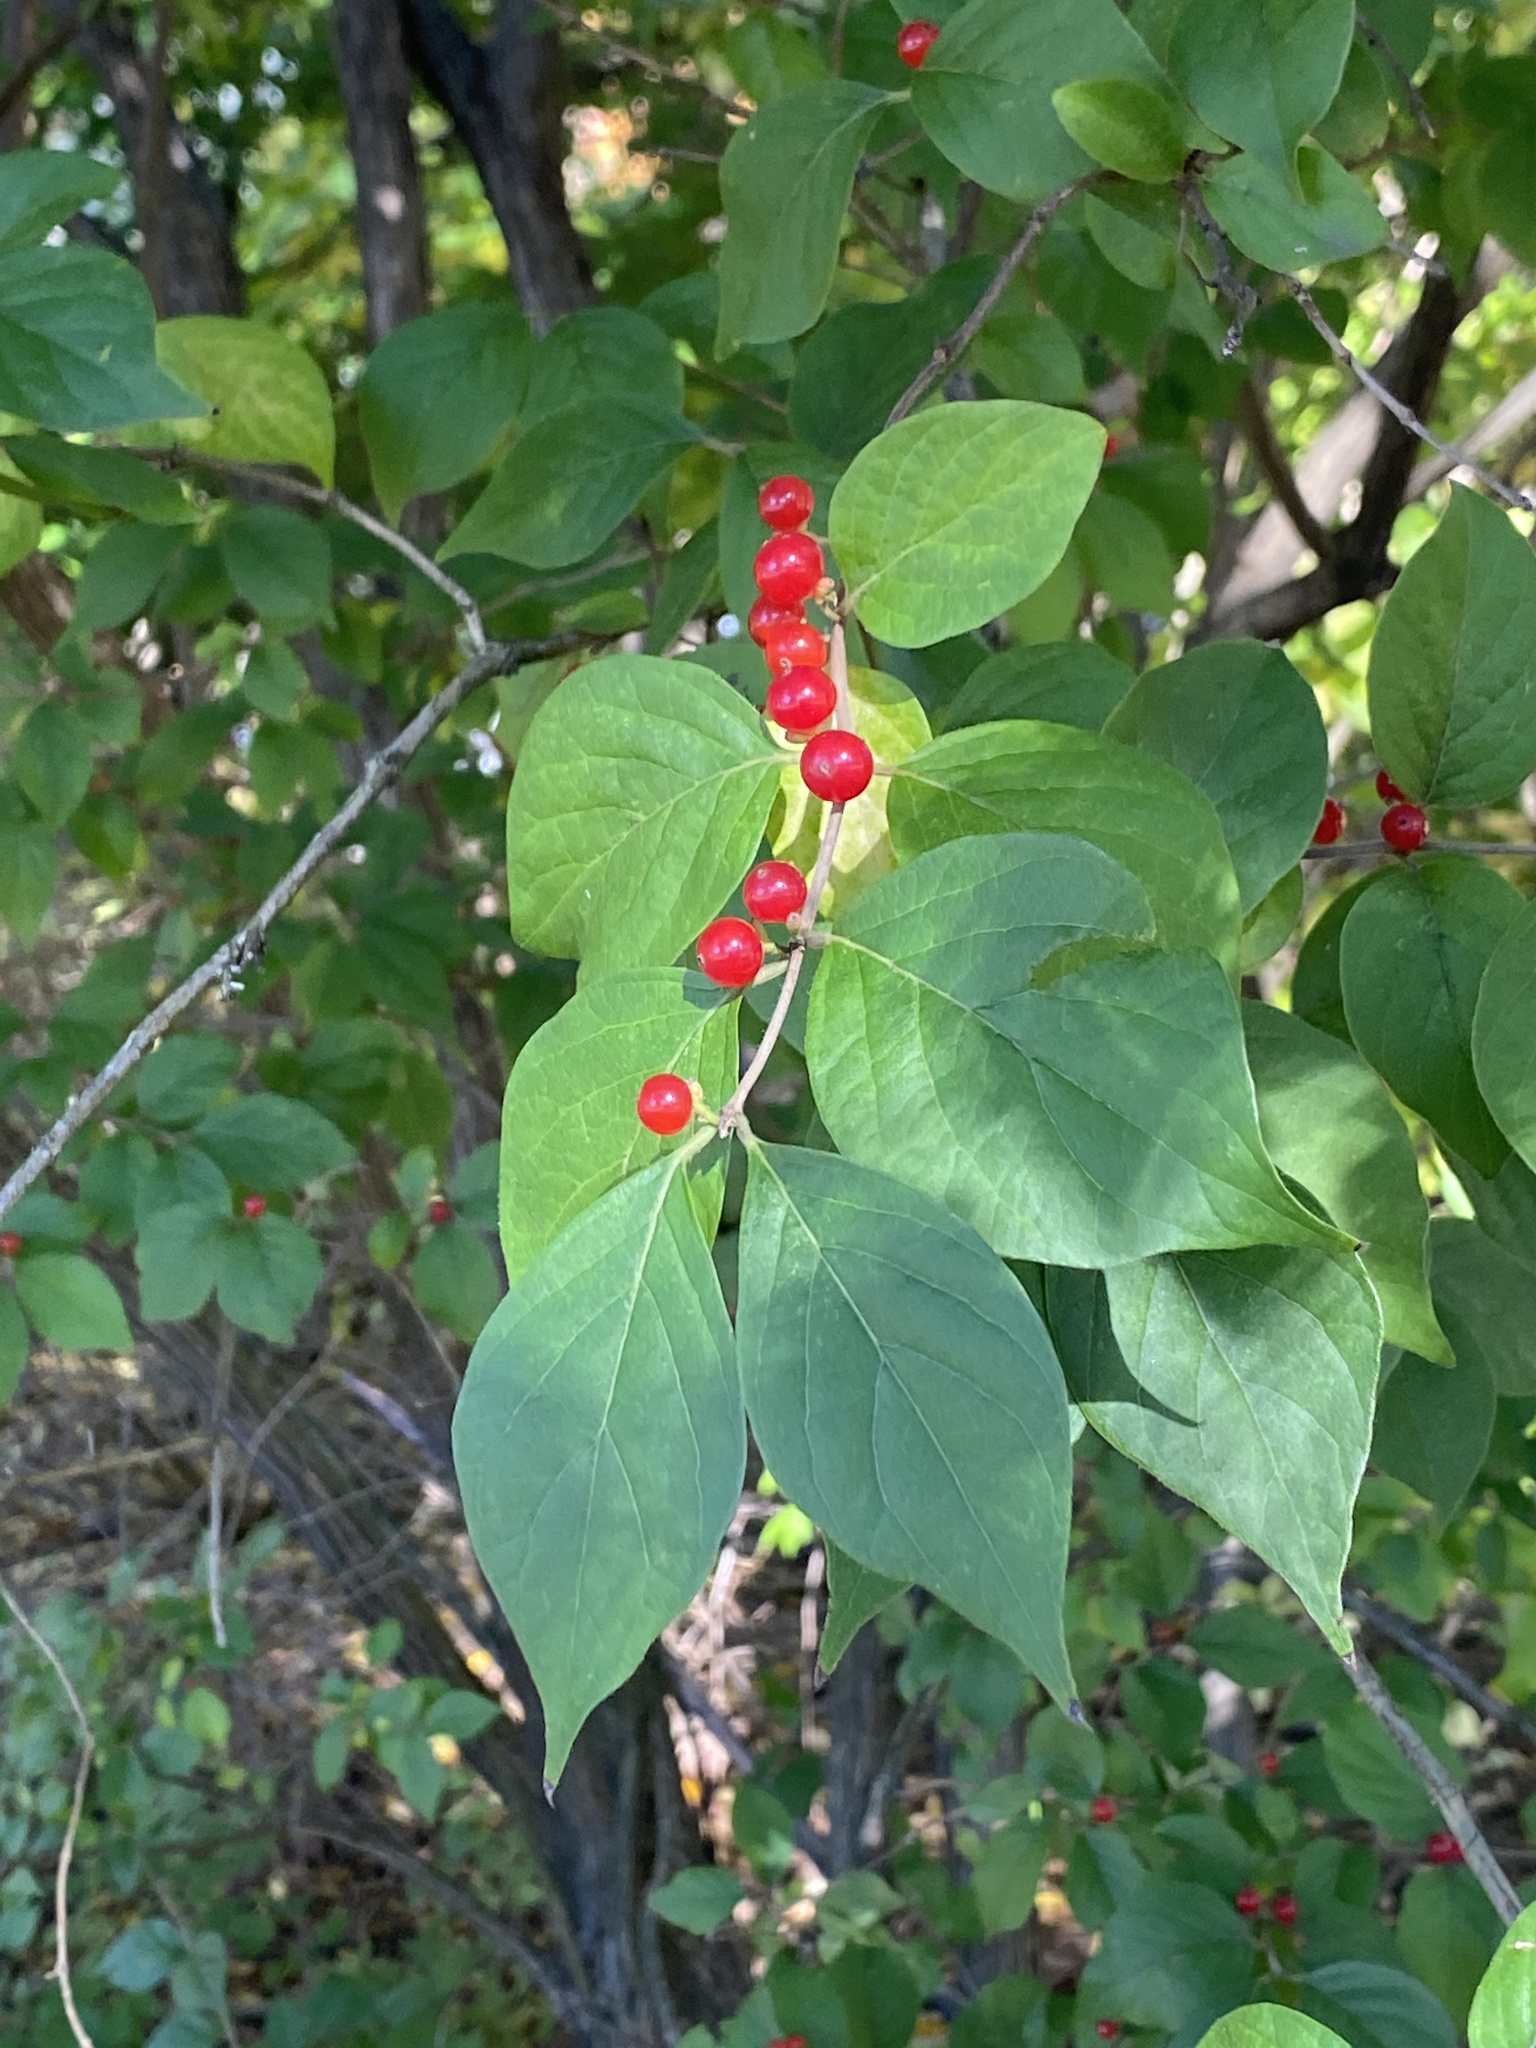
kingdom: Plantae
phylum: Tracheophyta
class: Magnoliopsida
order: Dipsacales
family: Caprifoliaceae
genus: Lonicera
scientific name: Lonicera maackii
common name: Amur honeysuckle
